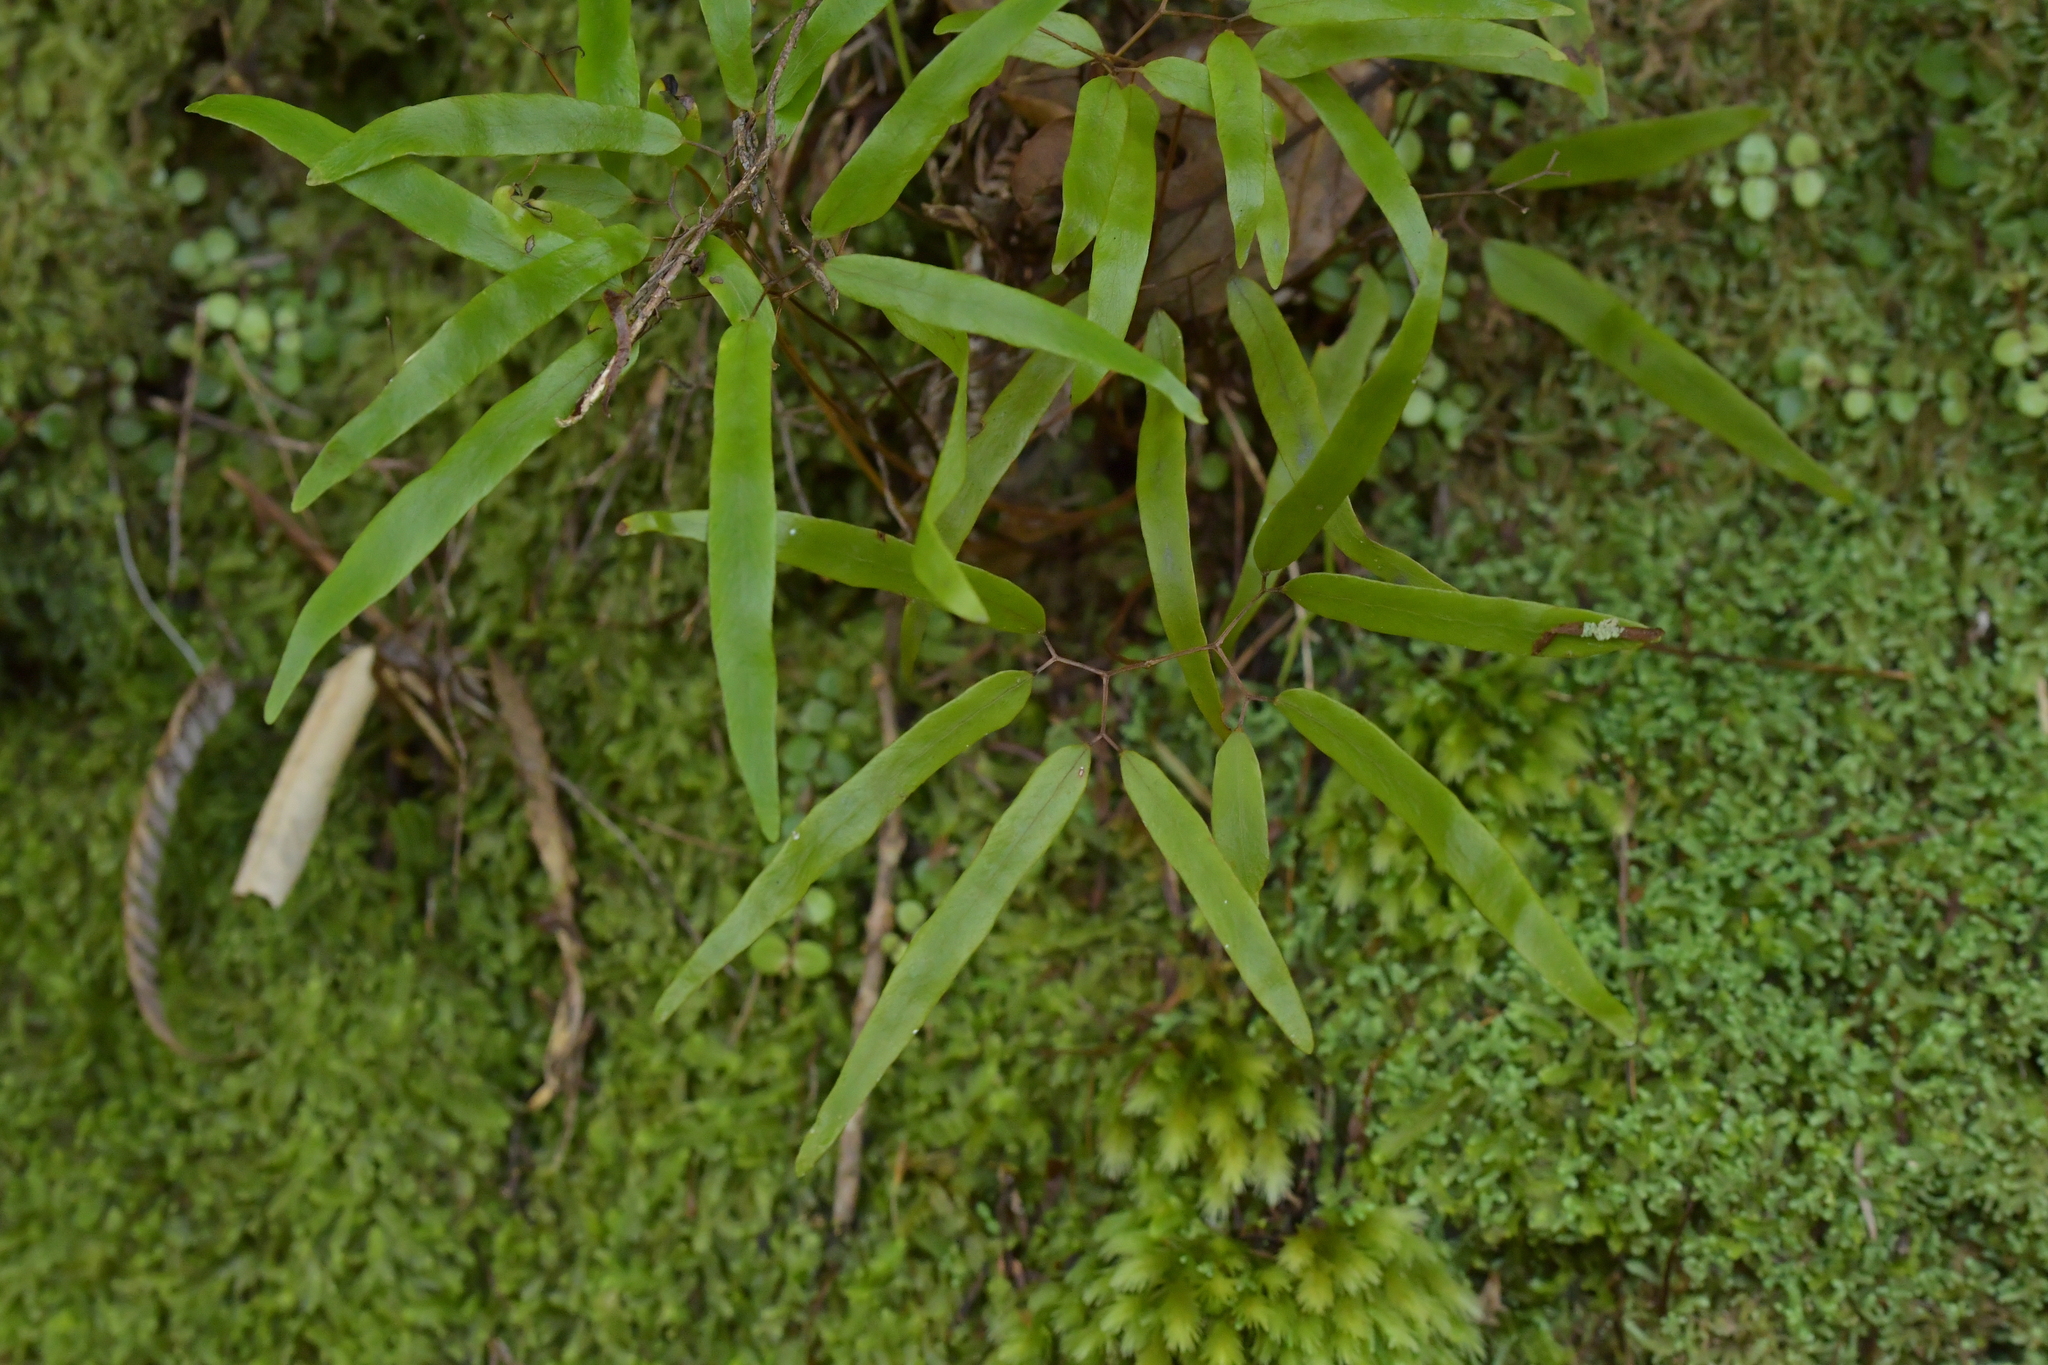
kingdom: Plantae
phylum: Tracheophyta
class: Polypodiopsida
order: Schizaeales
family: Lygodiaceae
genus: Lygodium
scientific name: Lygodium articulatum
